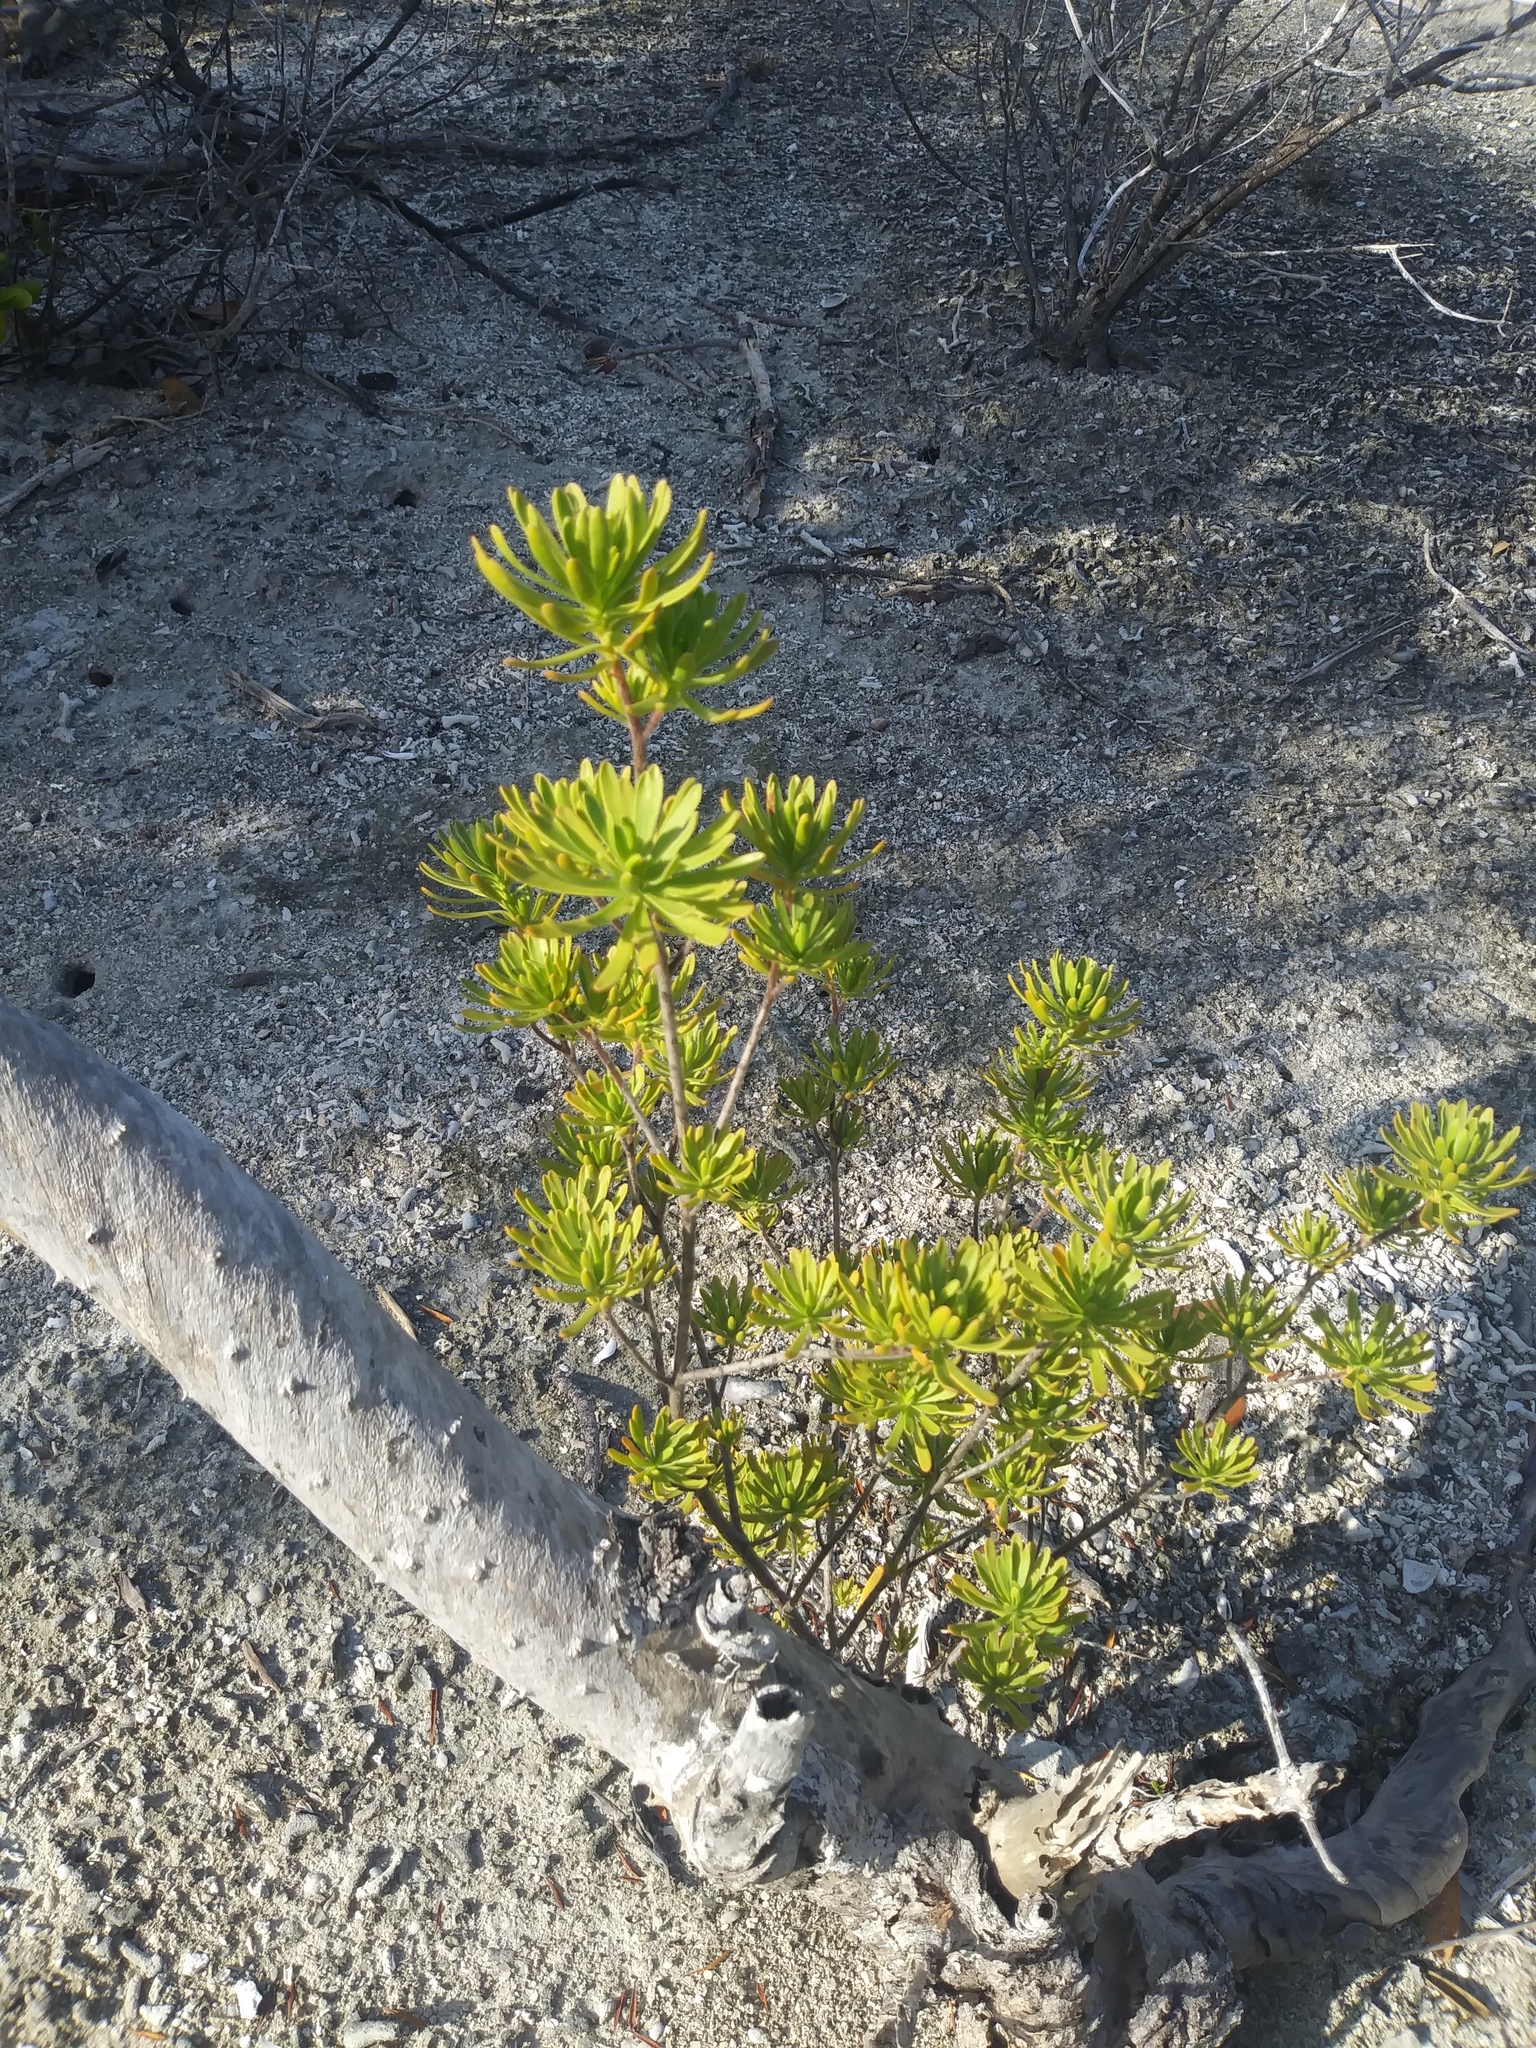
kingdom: Plantae
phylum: Tracheophyta
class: Magnoliopsida
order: Fabales
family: Surianaceae
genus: Suriana
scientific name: Suriana maritima
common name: Bay-cedar
